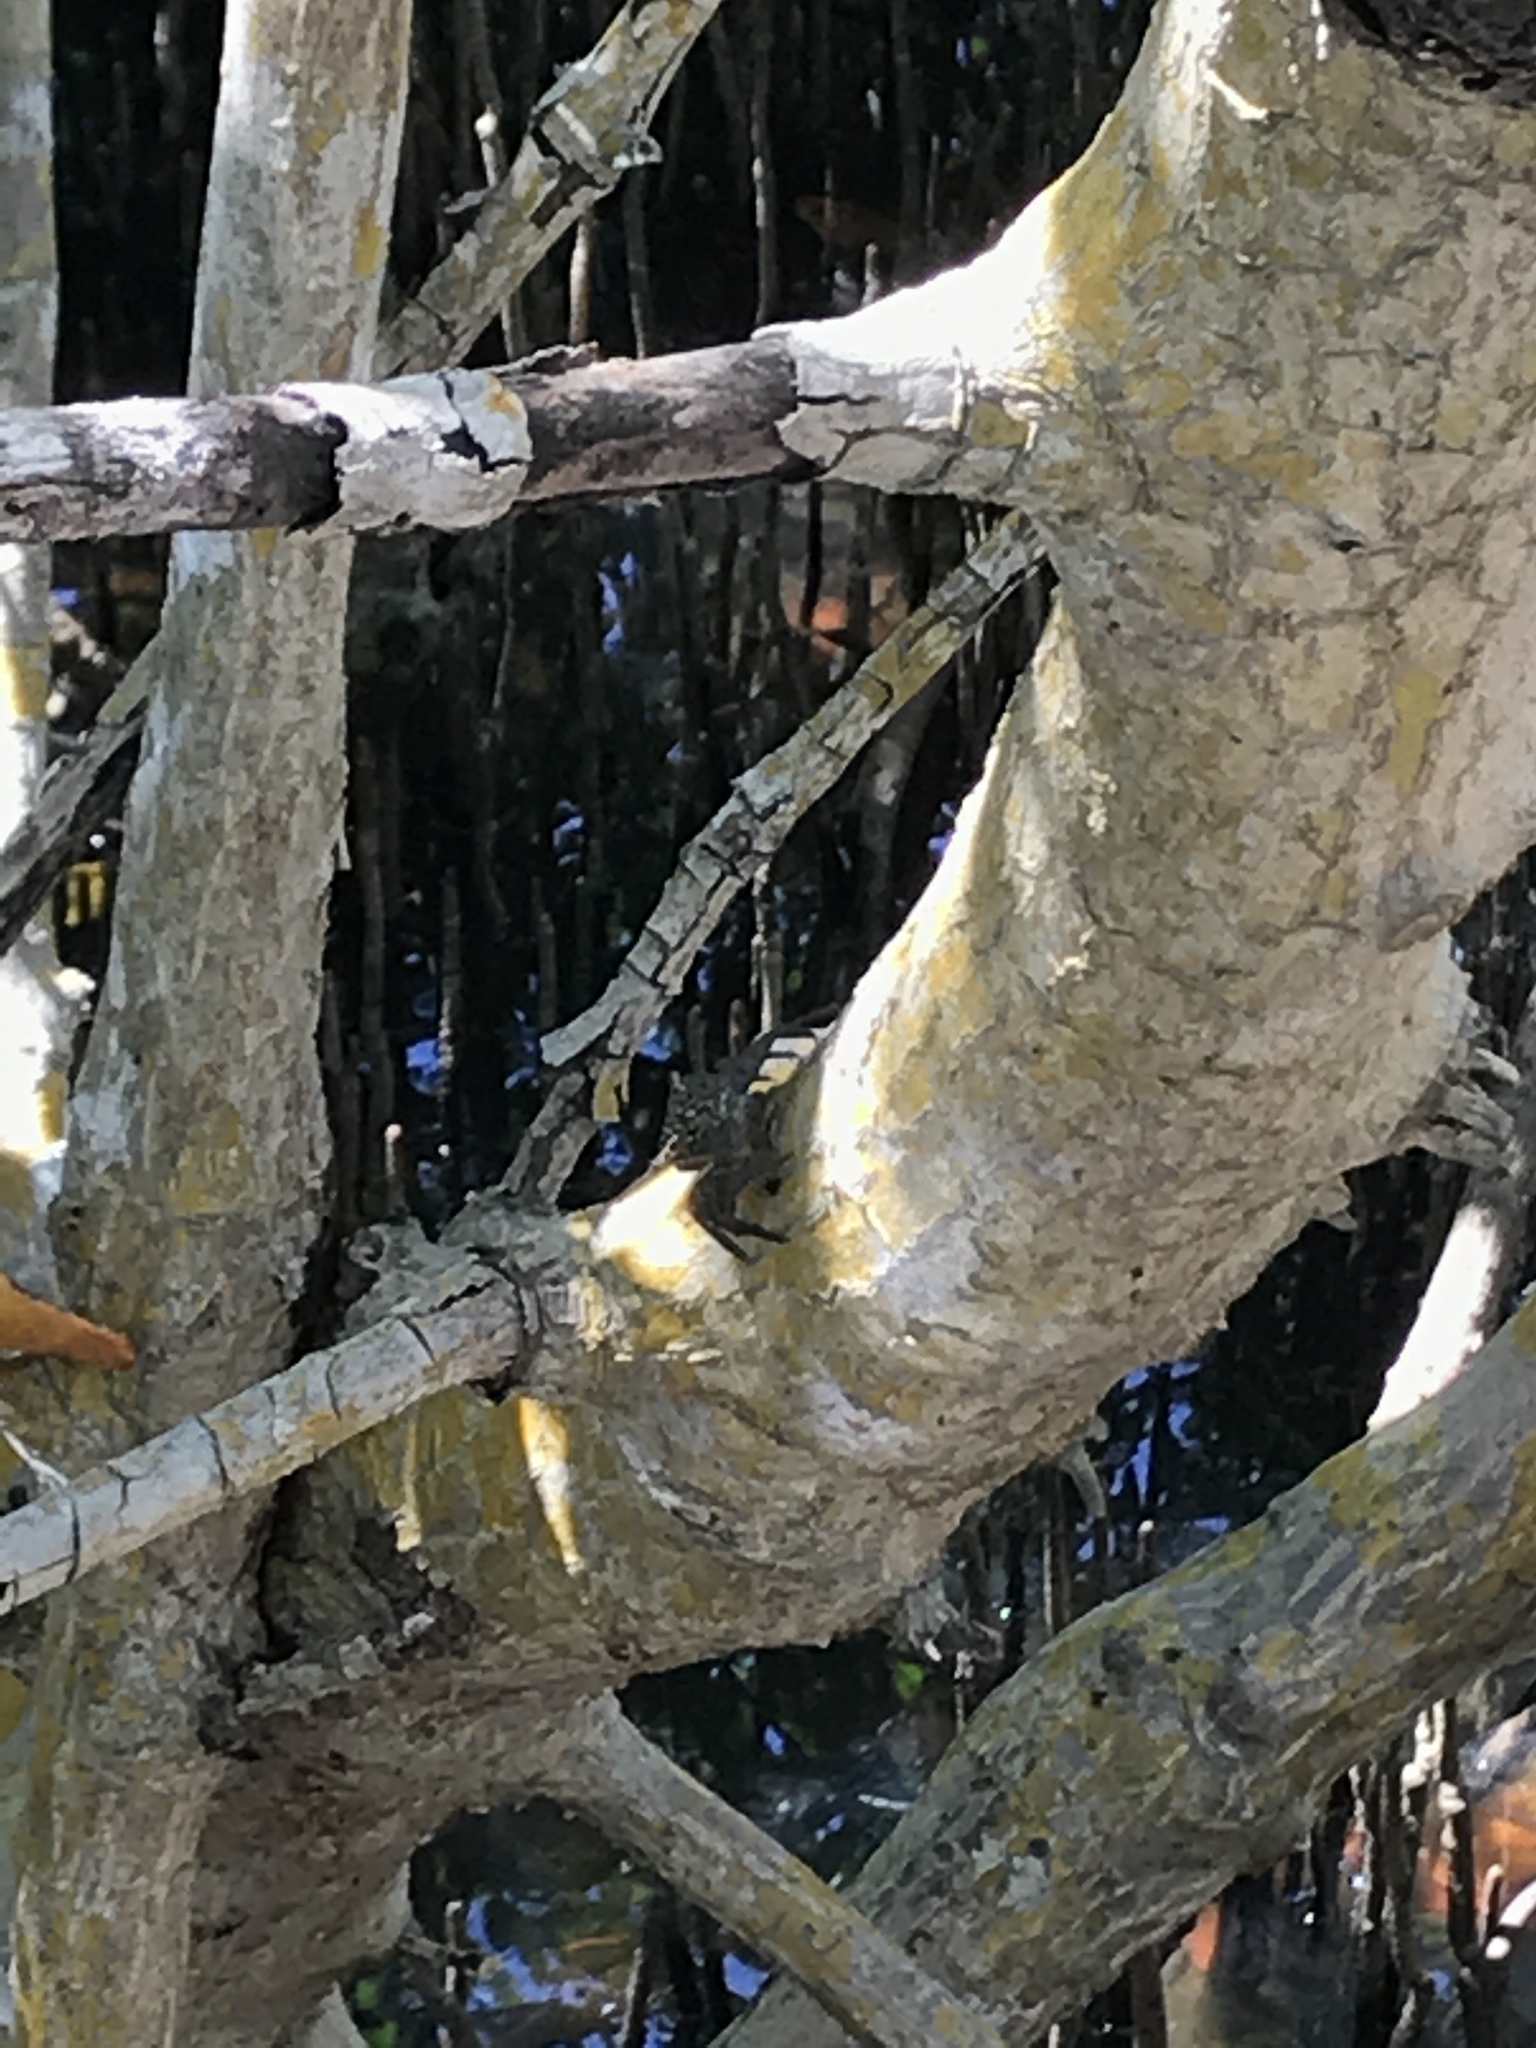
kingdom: Animalia
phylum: Arthropoda
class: Malacostraca
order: Decapoda
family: Sesarmidae
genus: Aratus
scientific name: Aratus pisonii
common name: Mangrove crab
